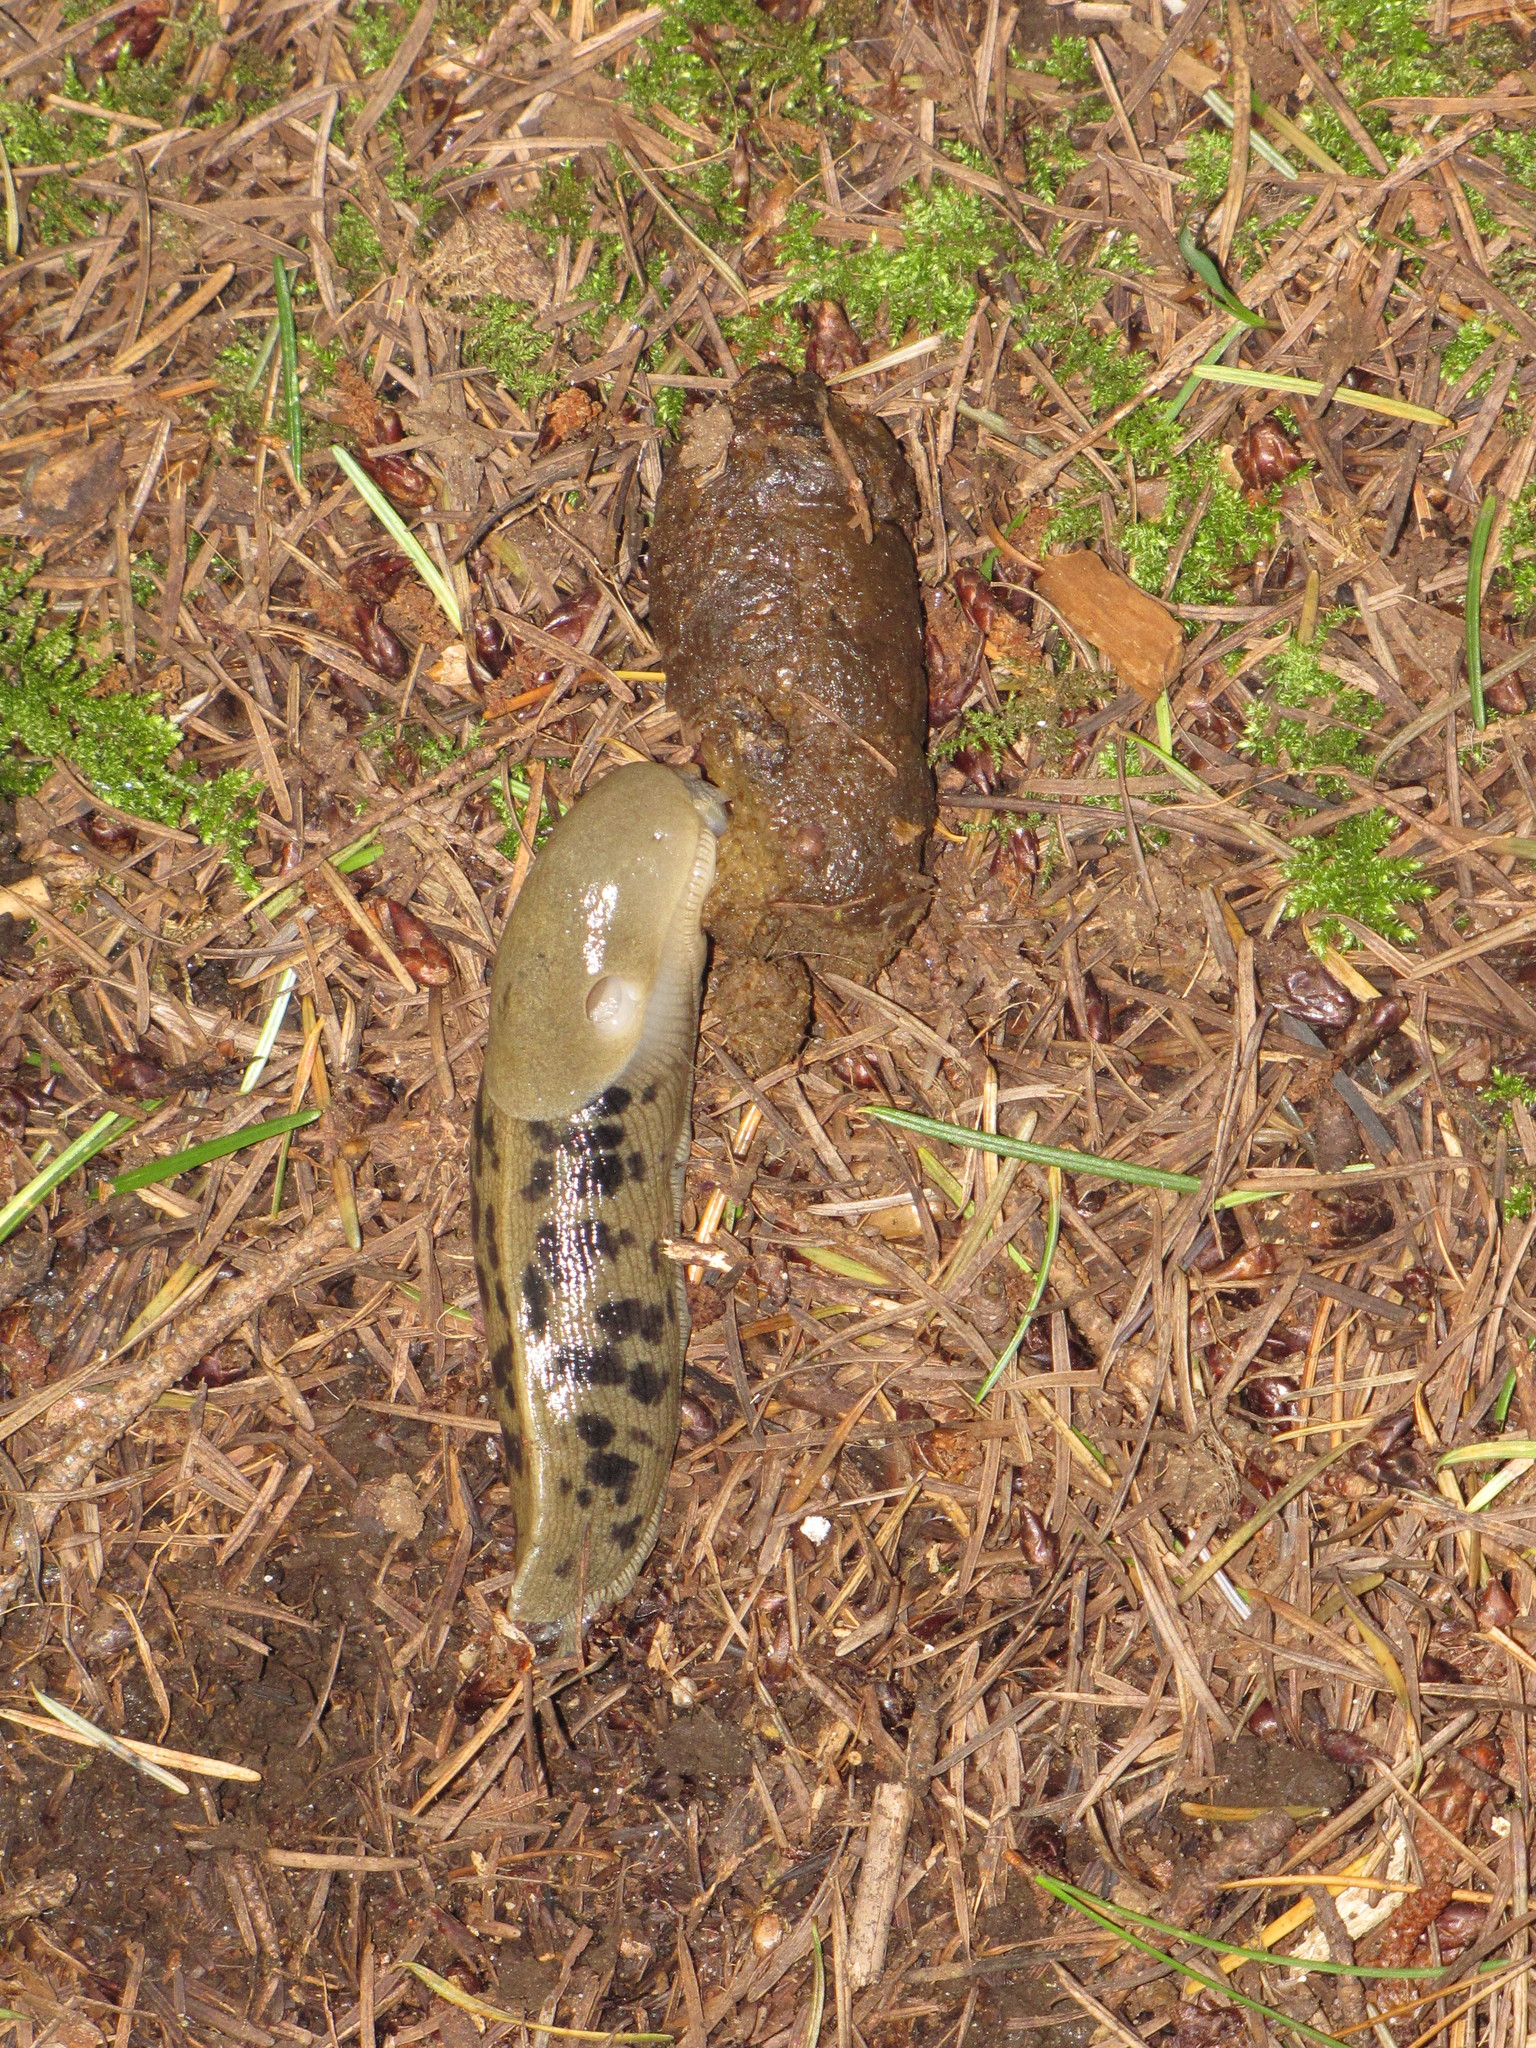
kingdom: Animalia
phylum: Mollusca
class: Gastropoda
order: Stylommatophora
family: Ariolimacidae
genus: Ariolimax
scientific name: Ariolimax columbianus
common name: Pacific banana slug
